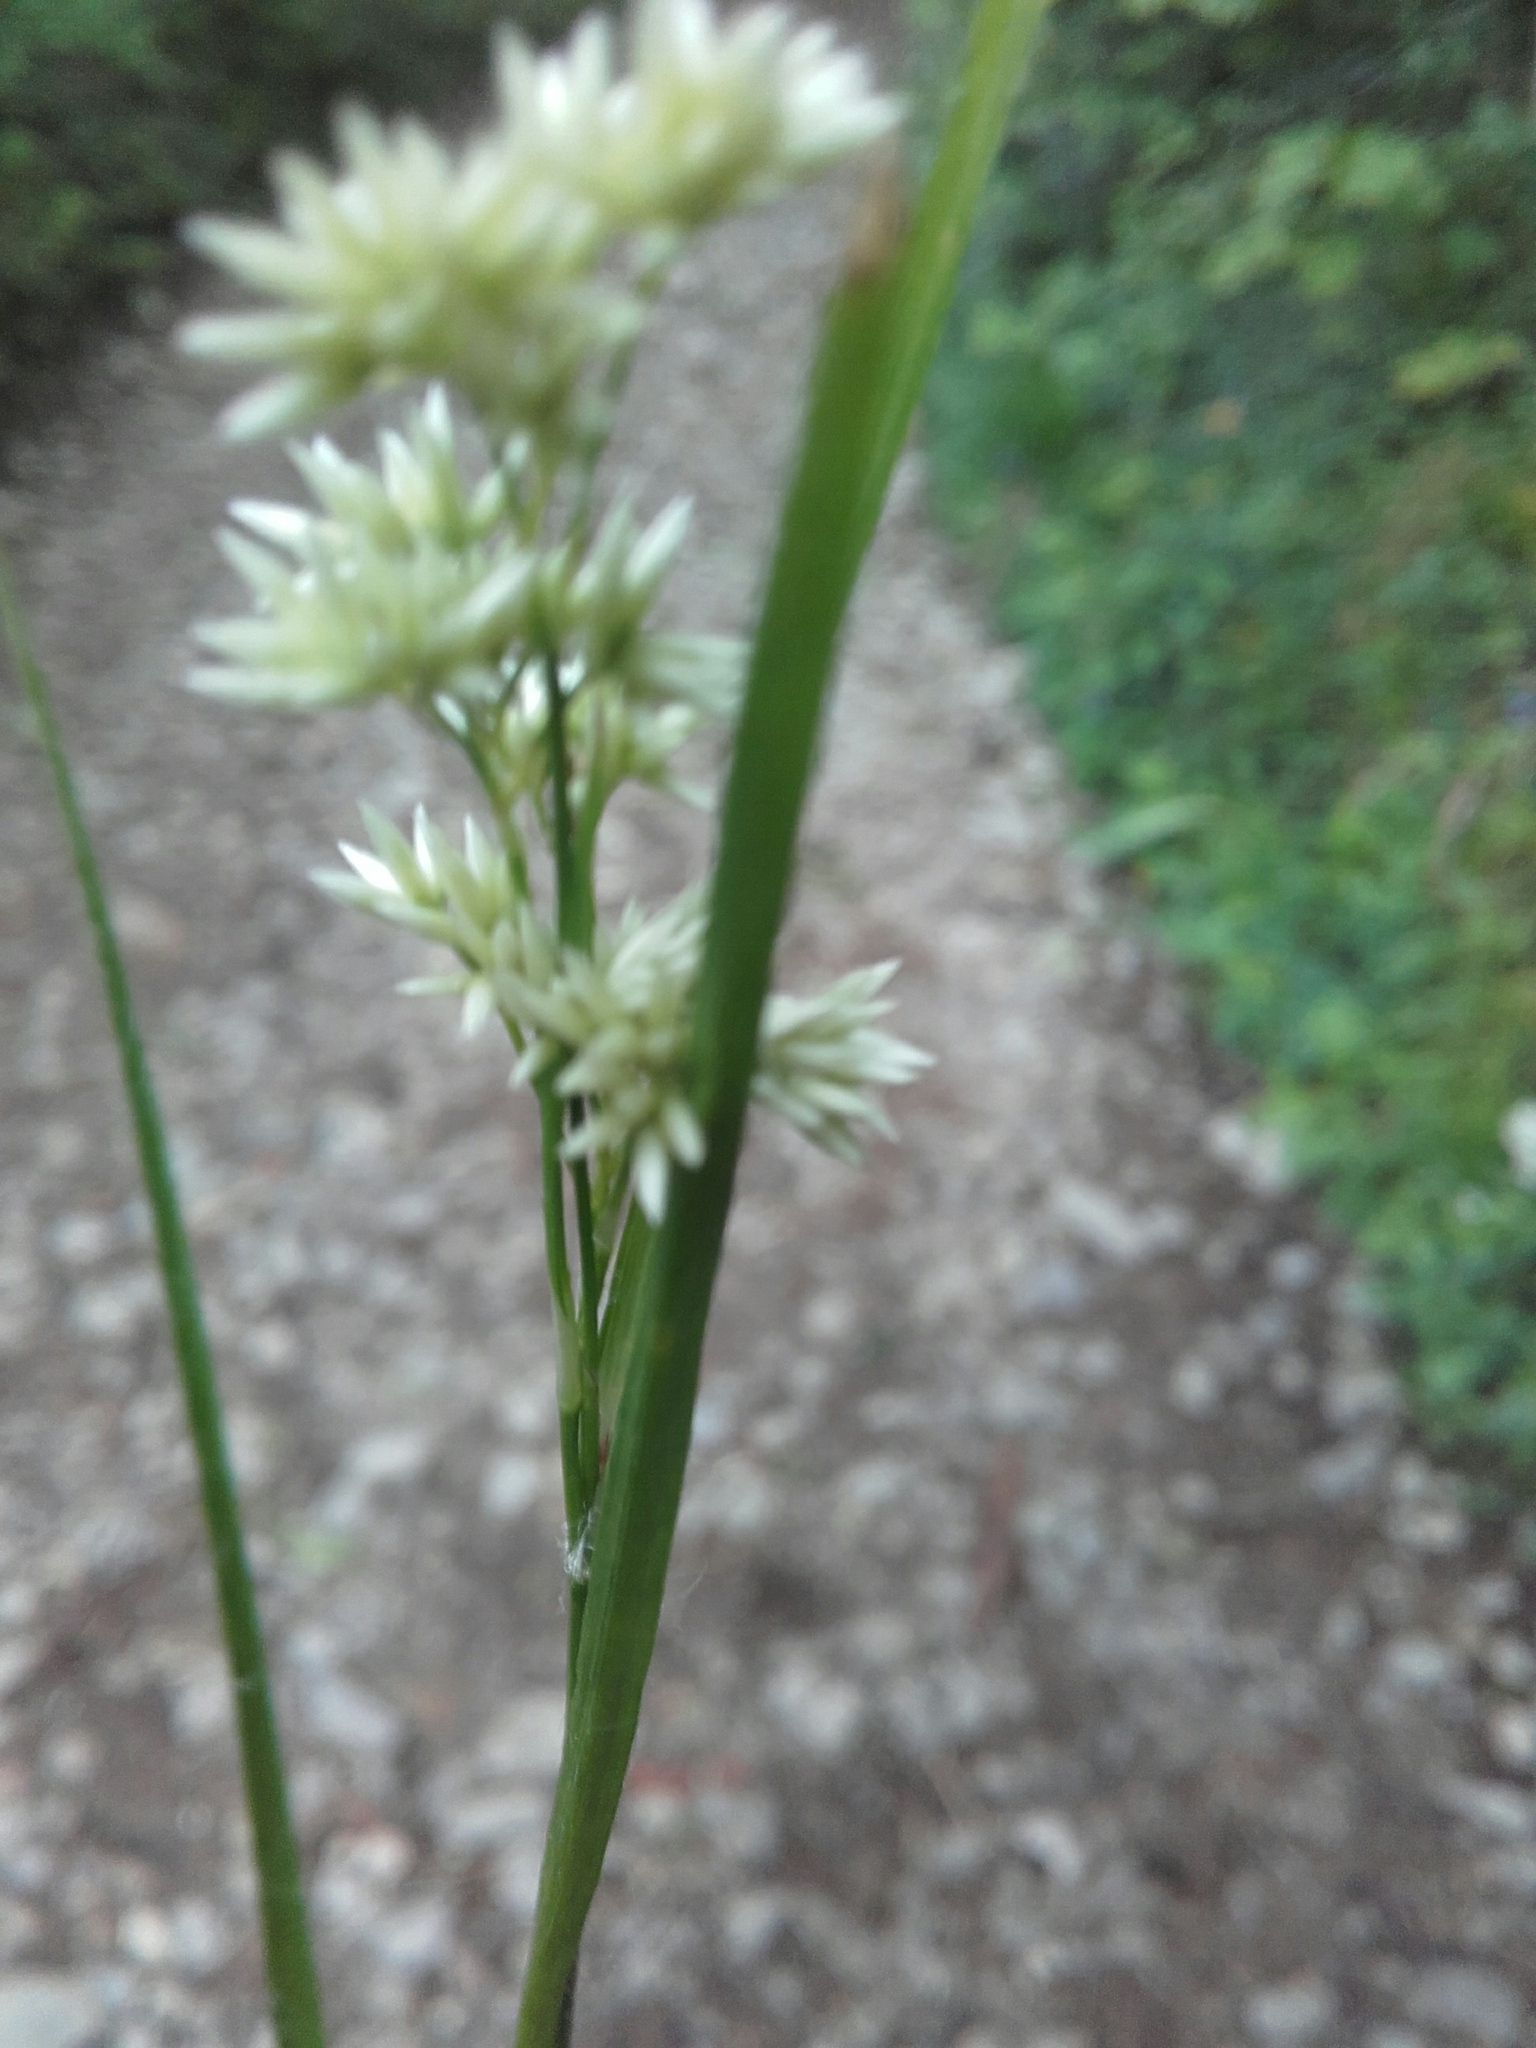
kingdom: Plantae
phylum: Tracheophyta
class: Liliopsida
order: Poales
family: Juncaceae
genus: Luzula
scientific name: Luzula nivea
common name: Snow-white wood-rush
